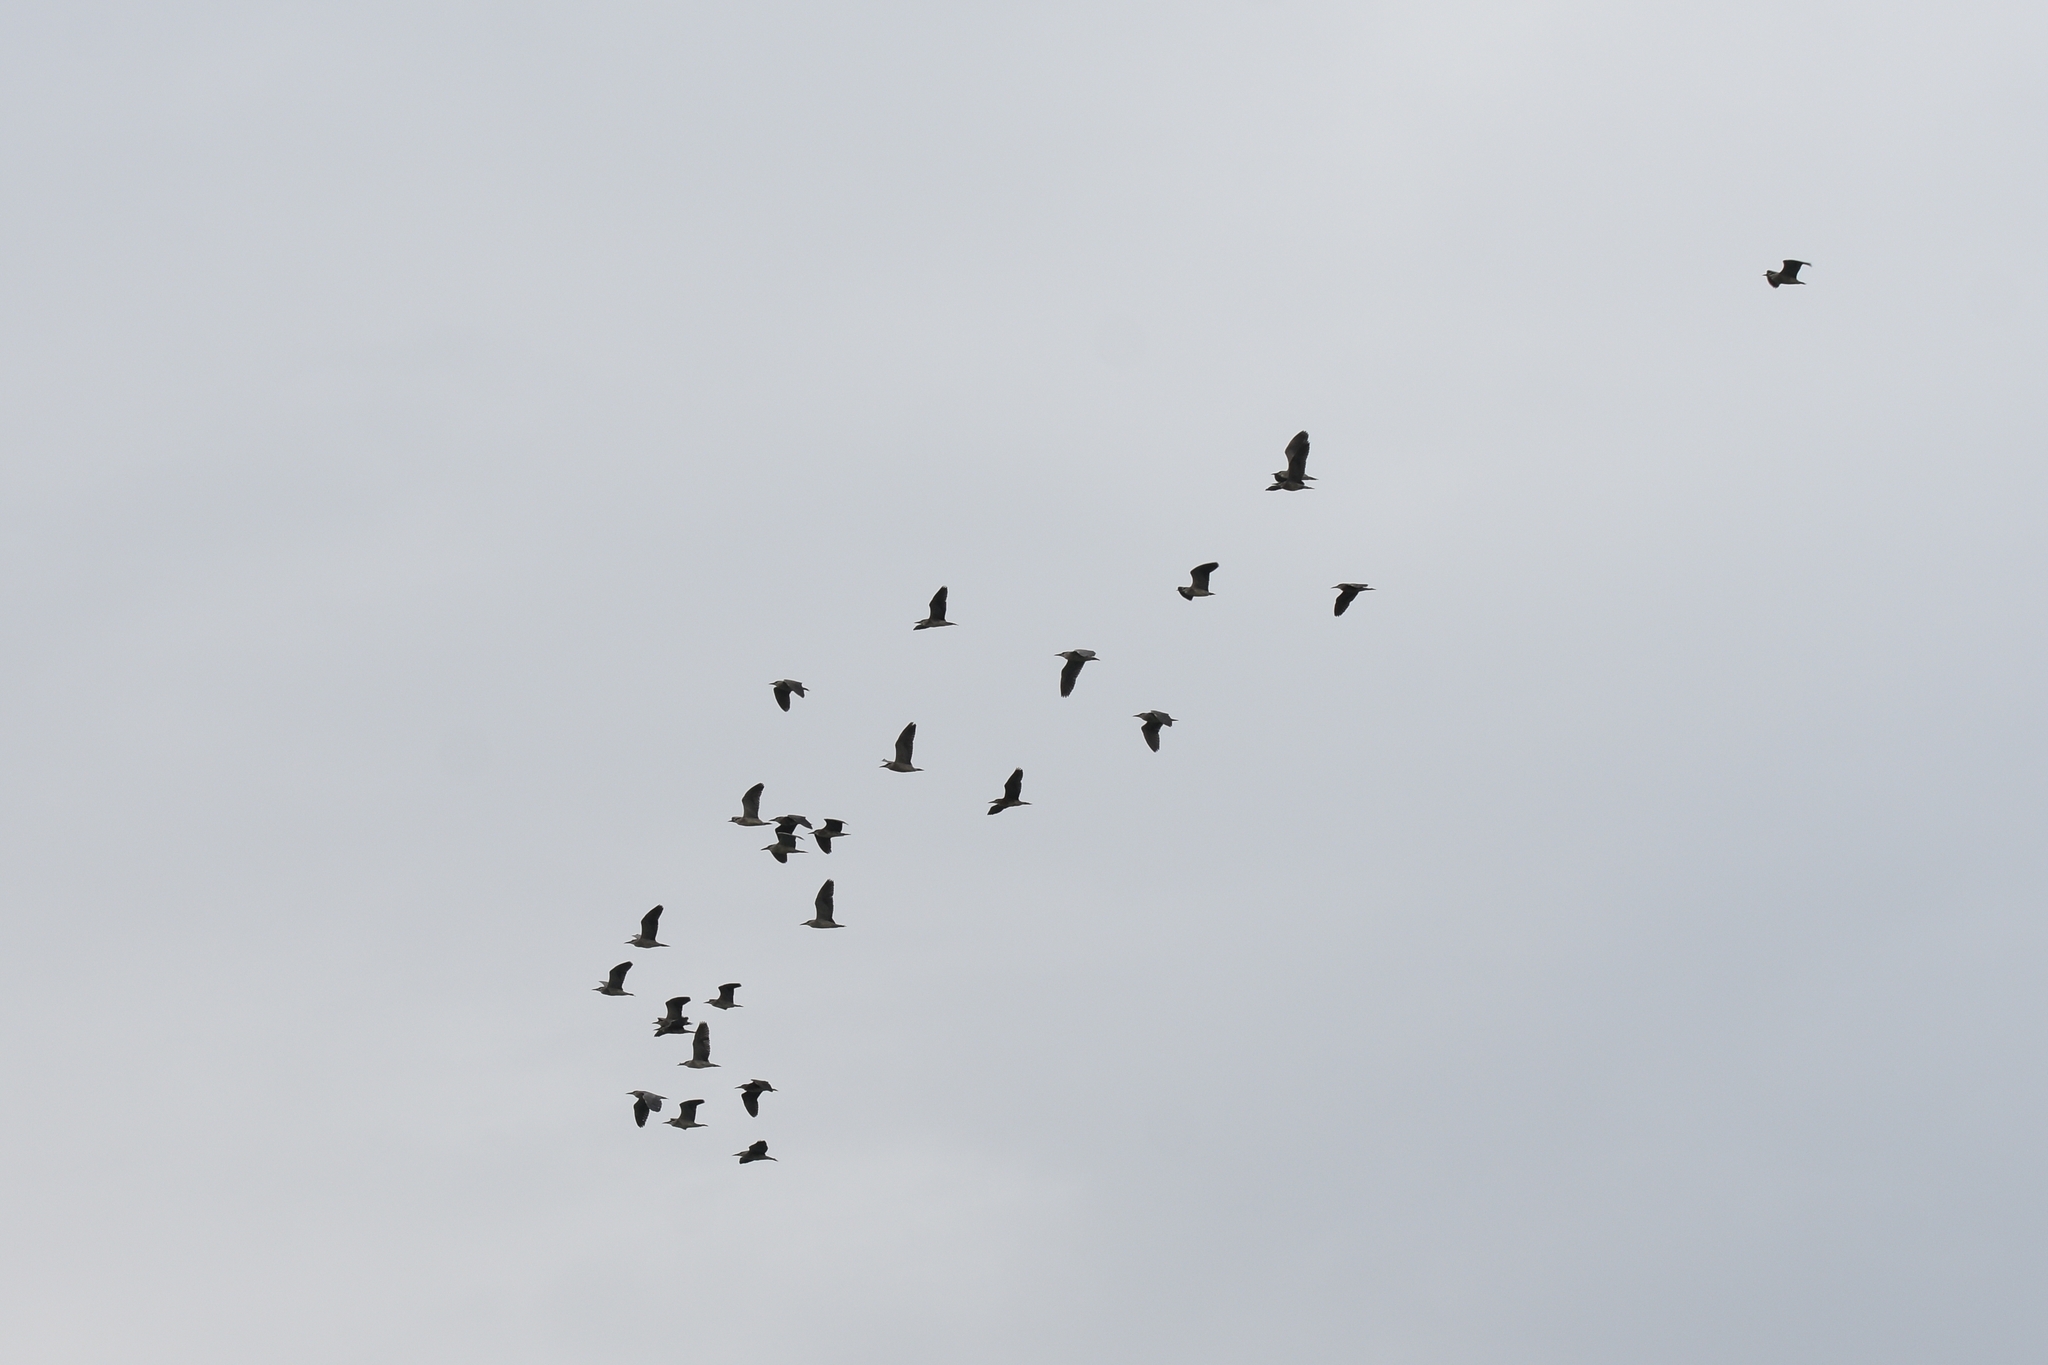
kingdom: Animalia
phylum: Chordata
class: Aves
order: Pelecaniformes
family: Ardeidae
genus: Nycticorax
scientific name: Nycticorax nycticorax
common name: Black-crowned night heron
